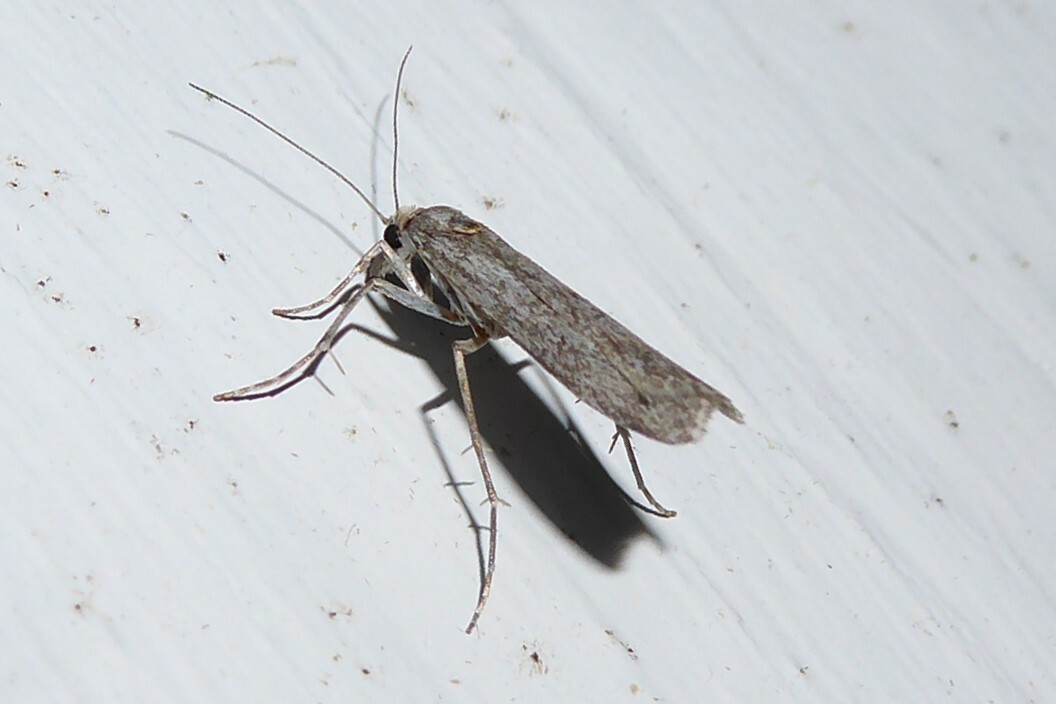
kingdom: Animalia
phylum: Arthropoda
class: Insecta
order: Lepidoptera
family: Crambidae
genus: Eudonia
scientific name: Eudonia leptalea
